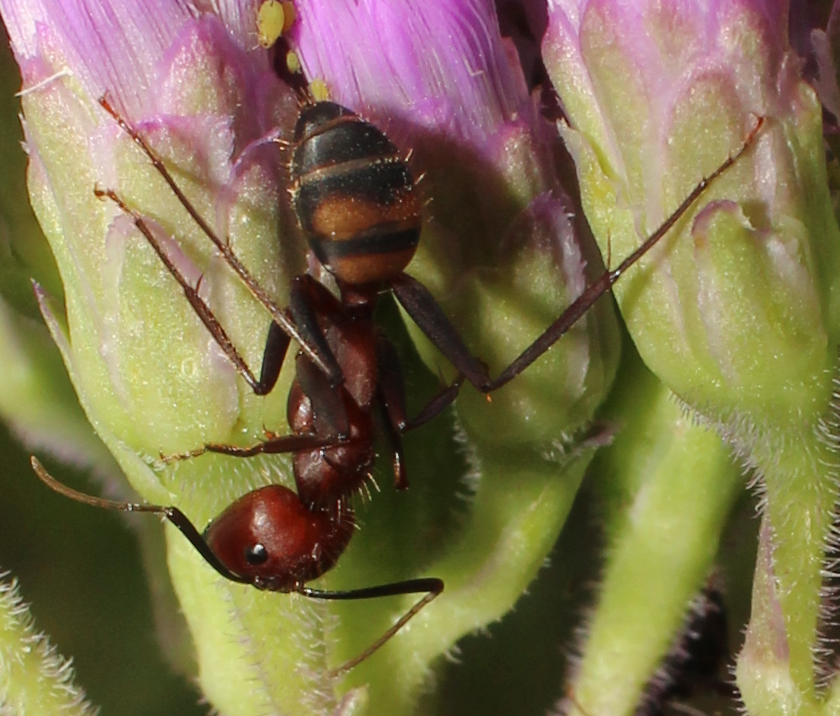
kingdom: Animalia
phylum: Arthropoda
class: Insecta
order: Hymenoptera
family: Formicidae
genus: Camponotus
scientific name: Camponotus socius
